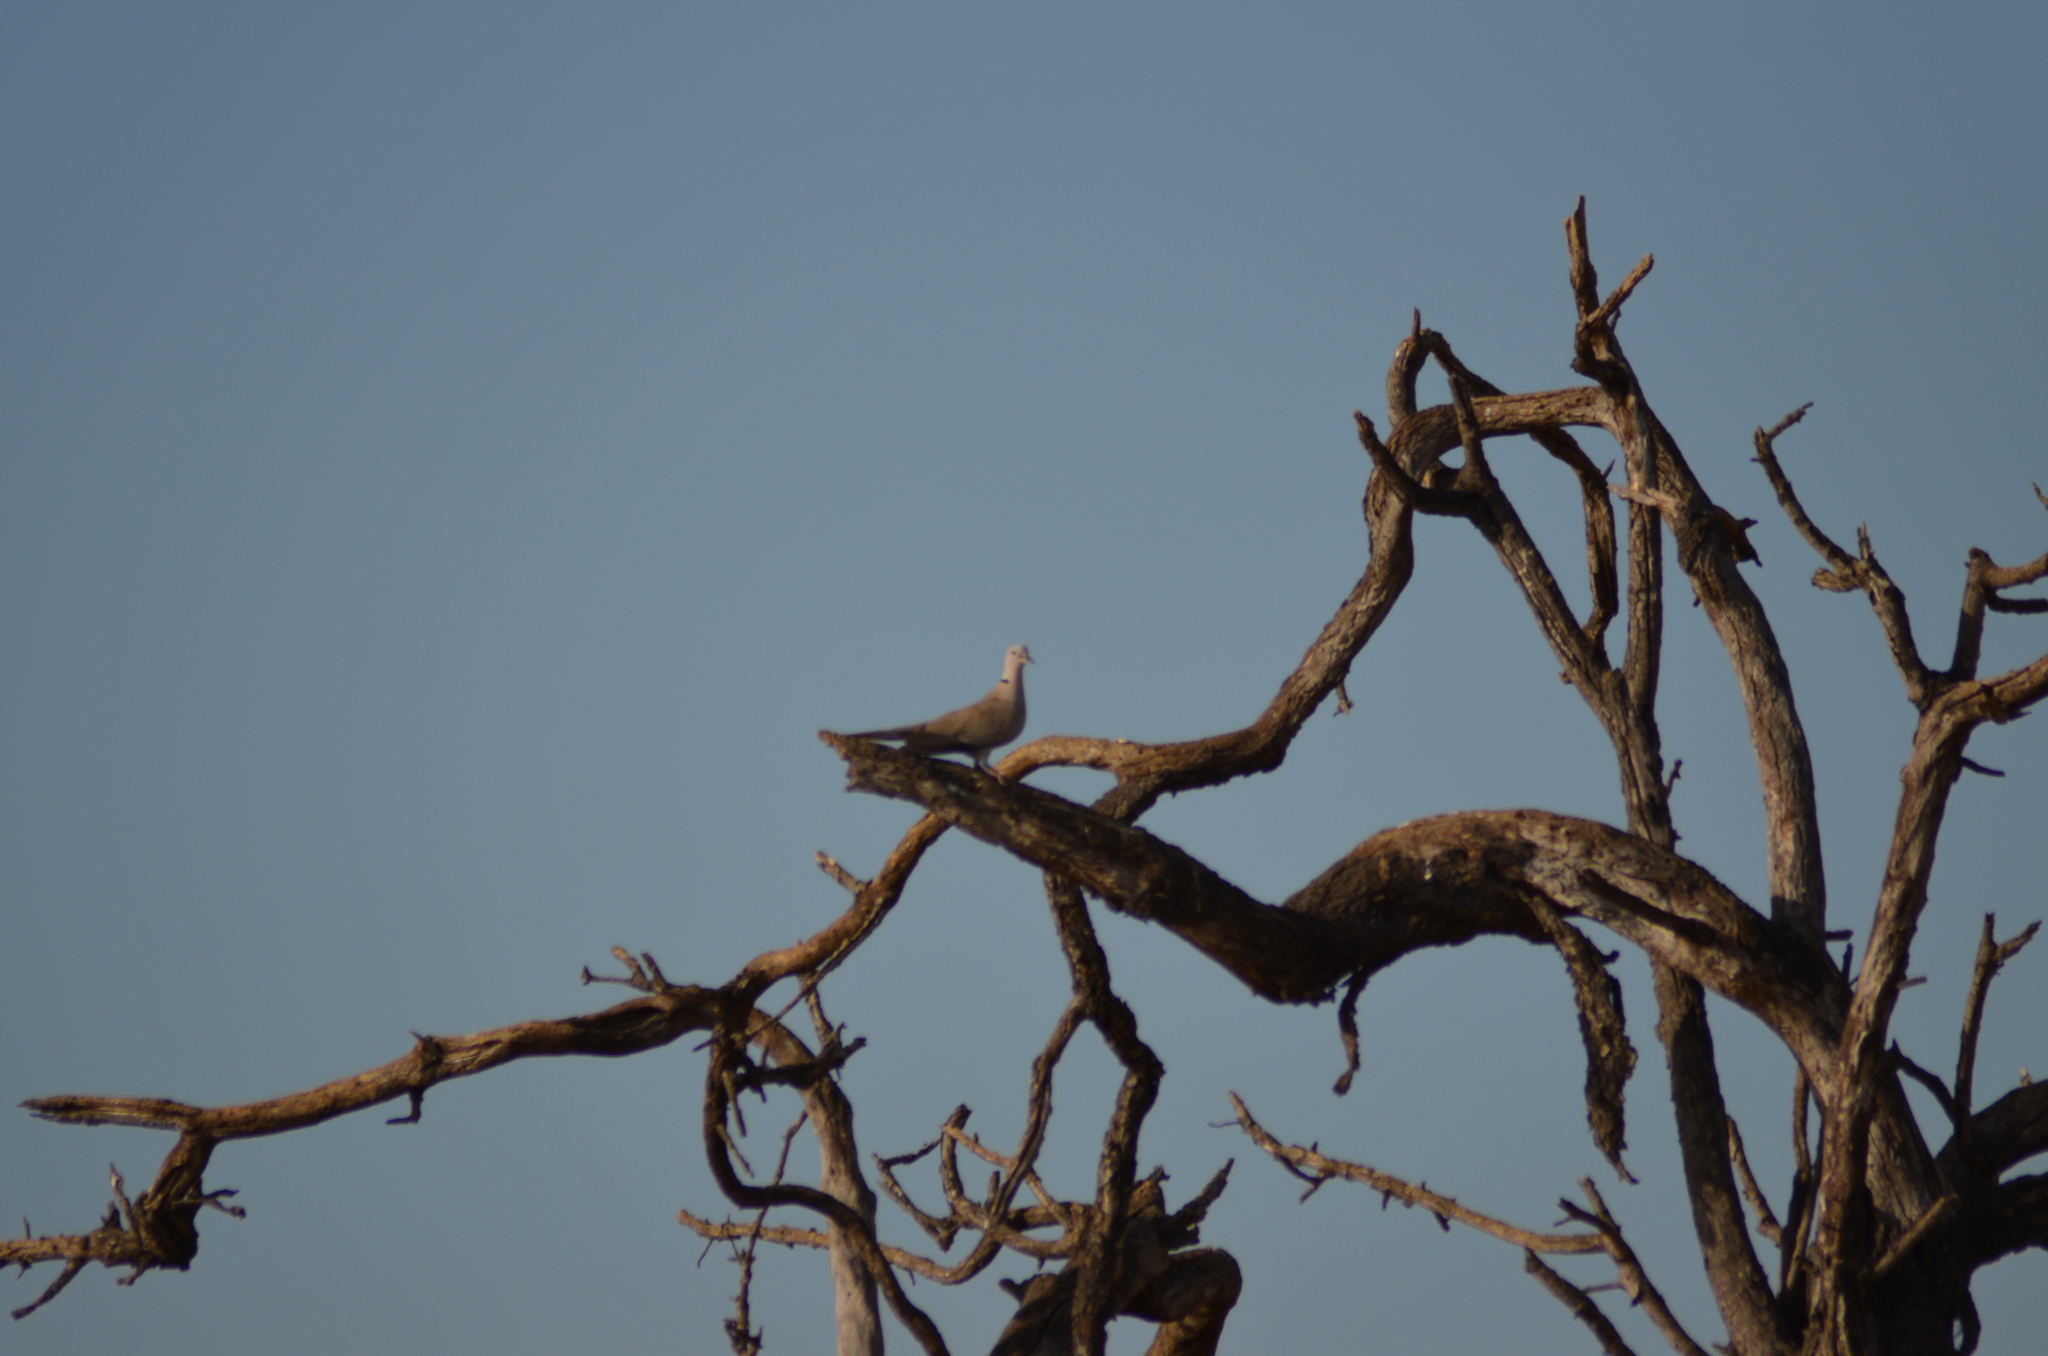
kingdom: Animalia
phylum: Chordata
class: Aves
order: Columbiformes
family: Columbidae
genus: Streptopelia
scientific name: Streptopelia decaocto
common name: Eurasian collared dove
